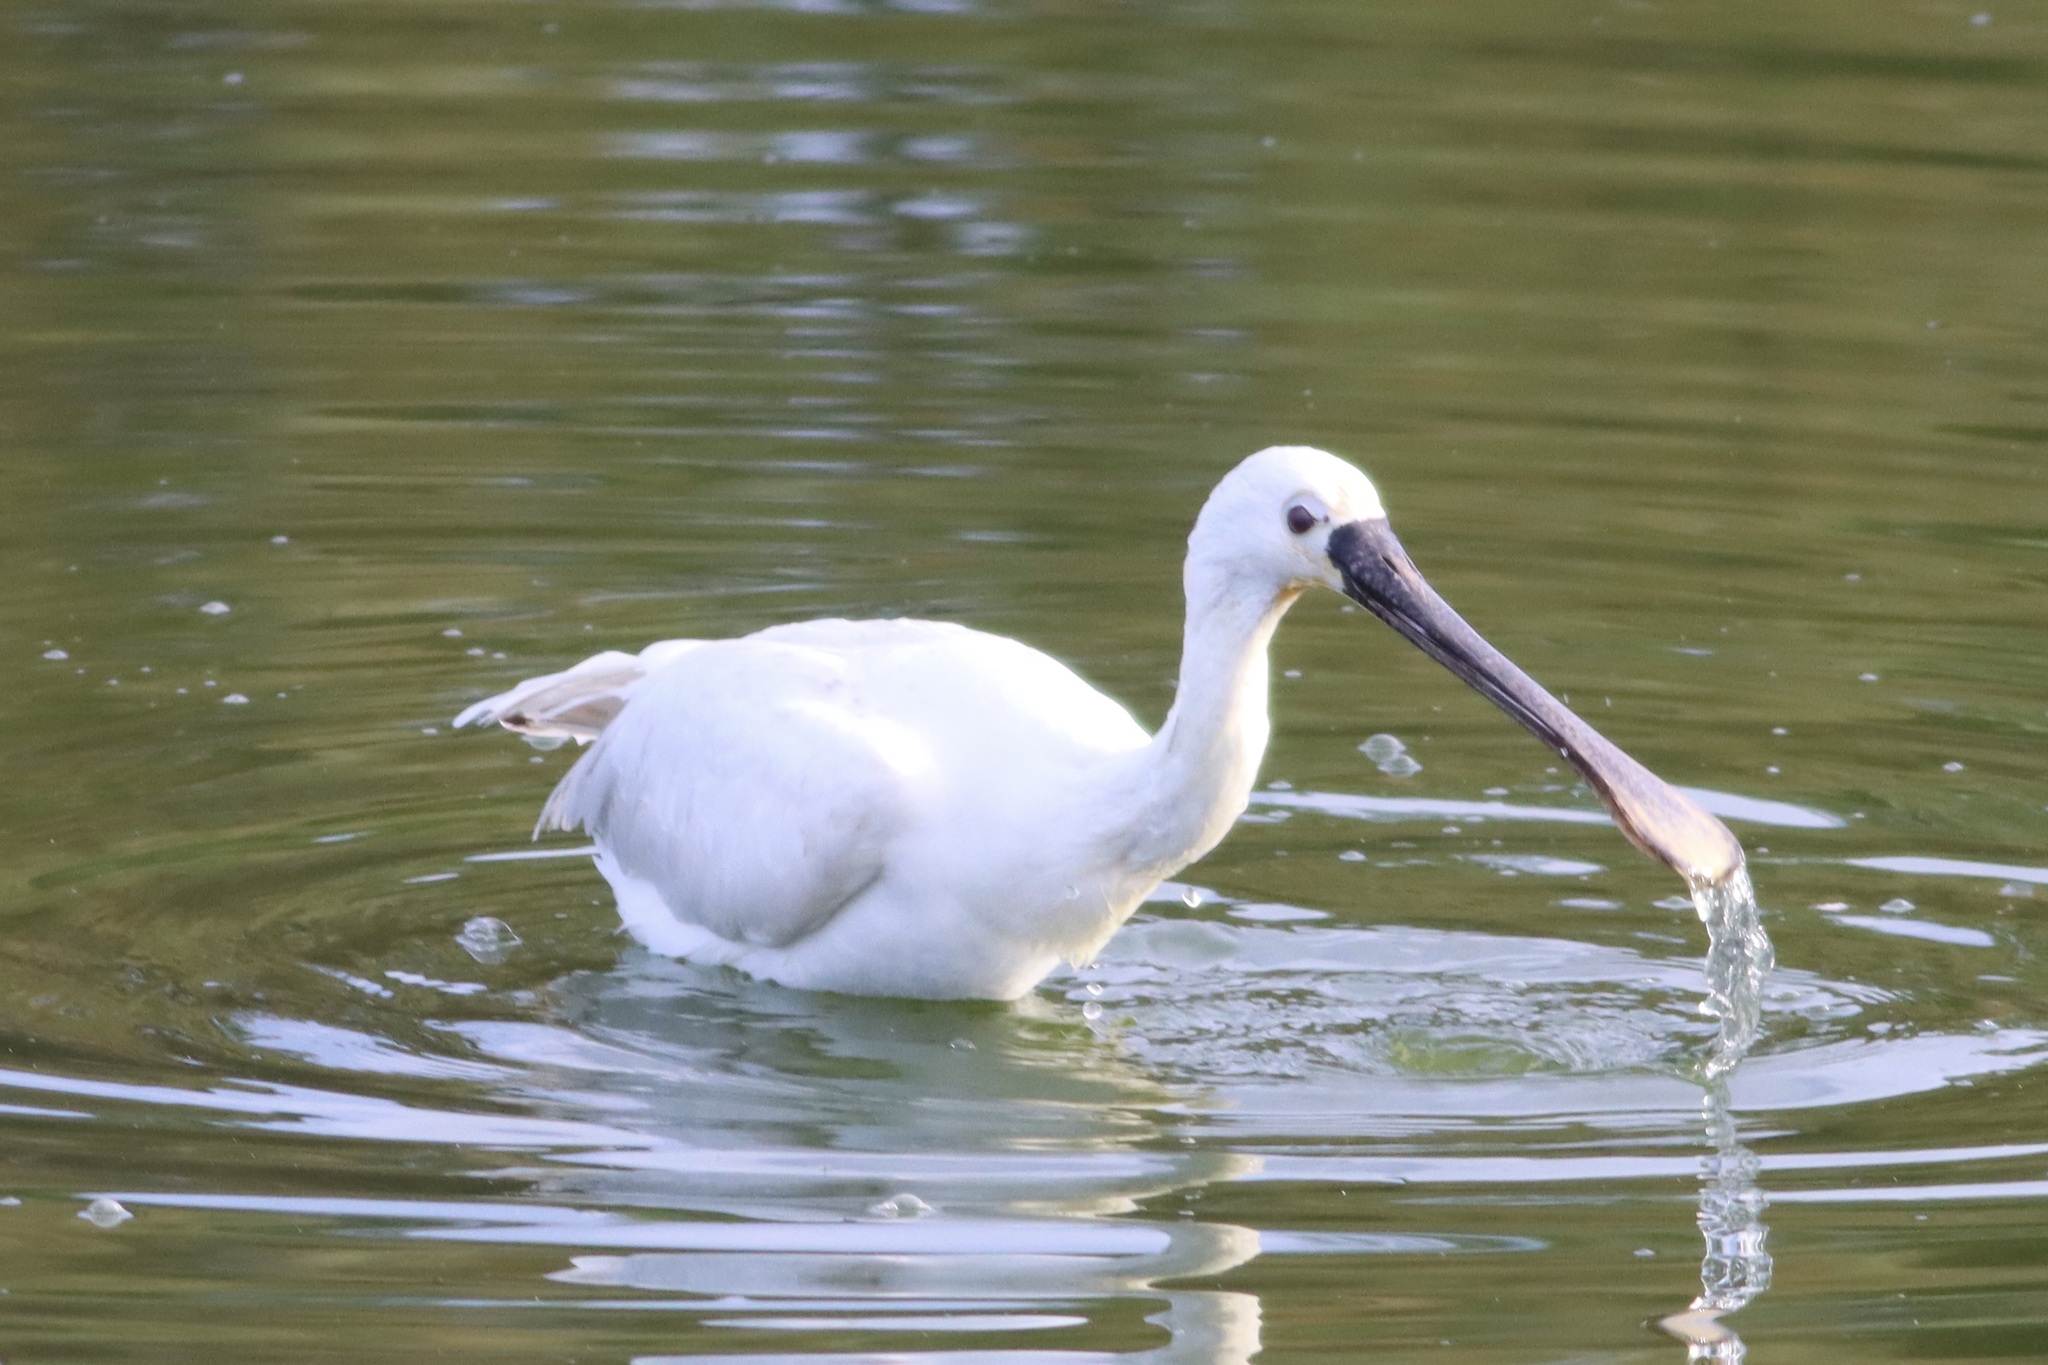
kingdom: Animalia
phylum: Chordata
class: Aves
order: Pelecaniformes
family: Threskiornithidae
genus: Platalea
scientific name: Platalea leucorodia
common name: Eurasian spoonbill
